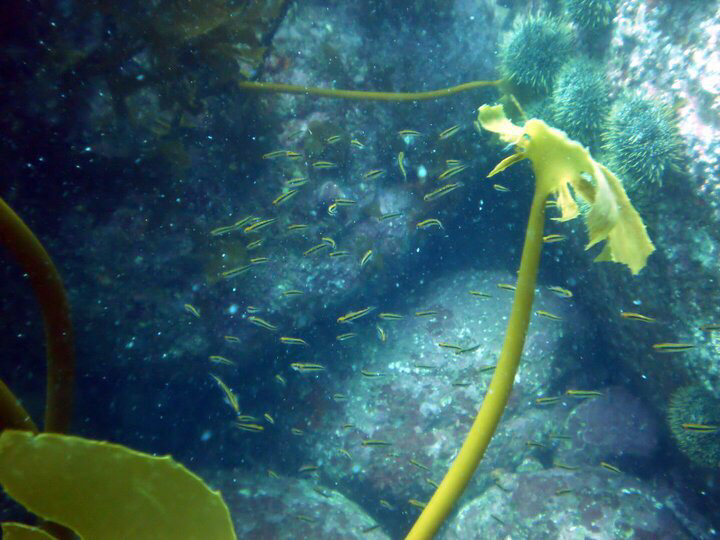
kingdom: Animalia
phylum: Chordata
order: Perciformes
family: Tripterygiidae
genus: Forsterygion
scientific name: Forsterygion maryannae
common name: Oblique-swimming triplefin
